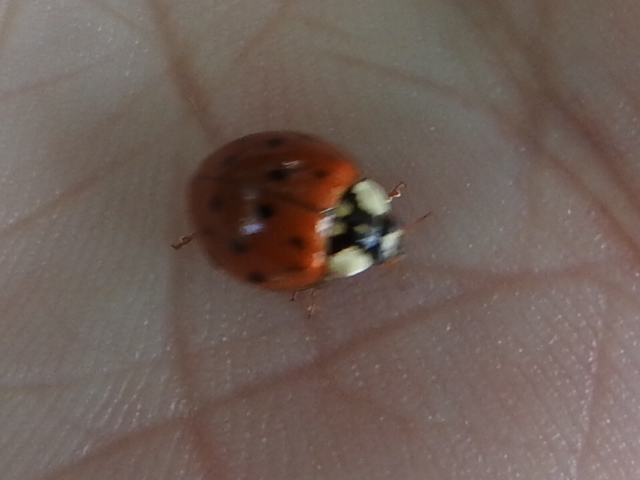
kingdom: Animalia
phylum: Arthropoda
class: Insecta
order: Coleoptera
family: Coccinellidae
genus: Harmonia
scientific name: Harmonia axyridis
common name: Harlequin ladybird
